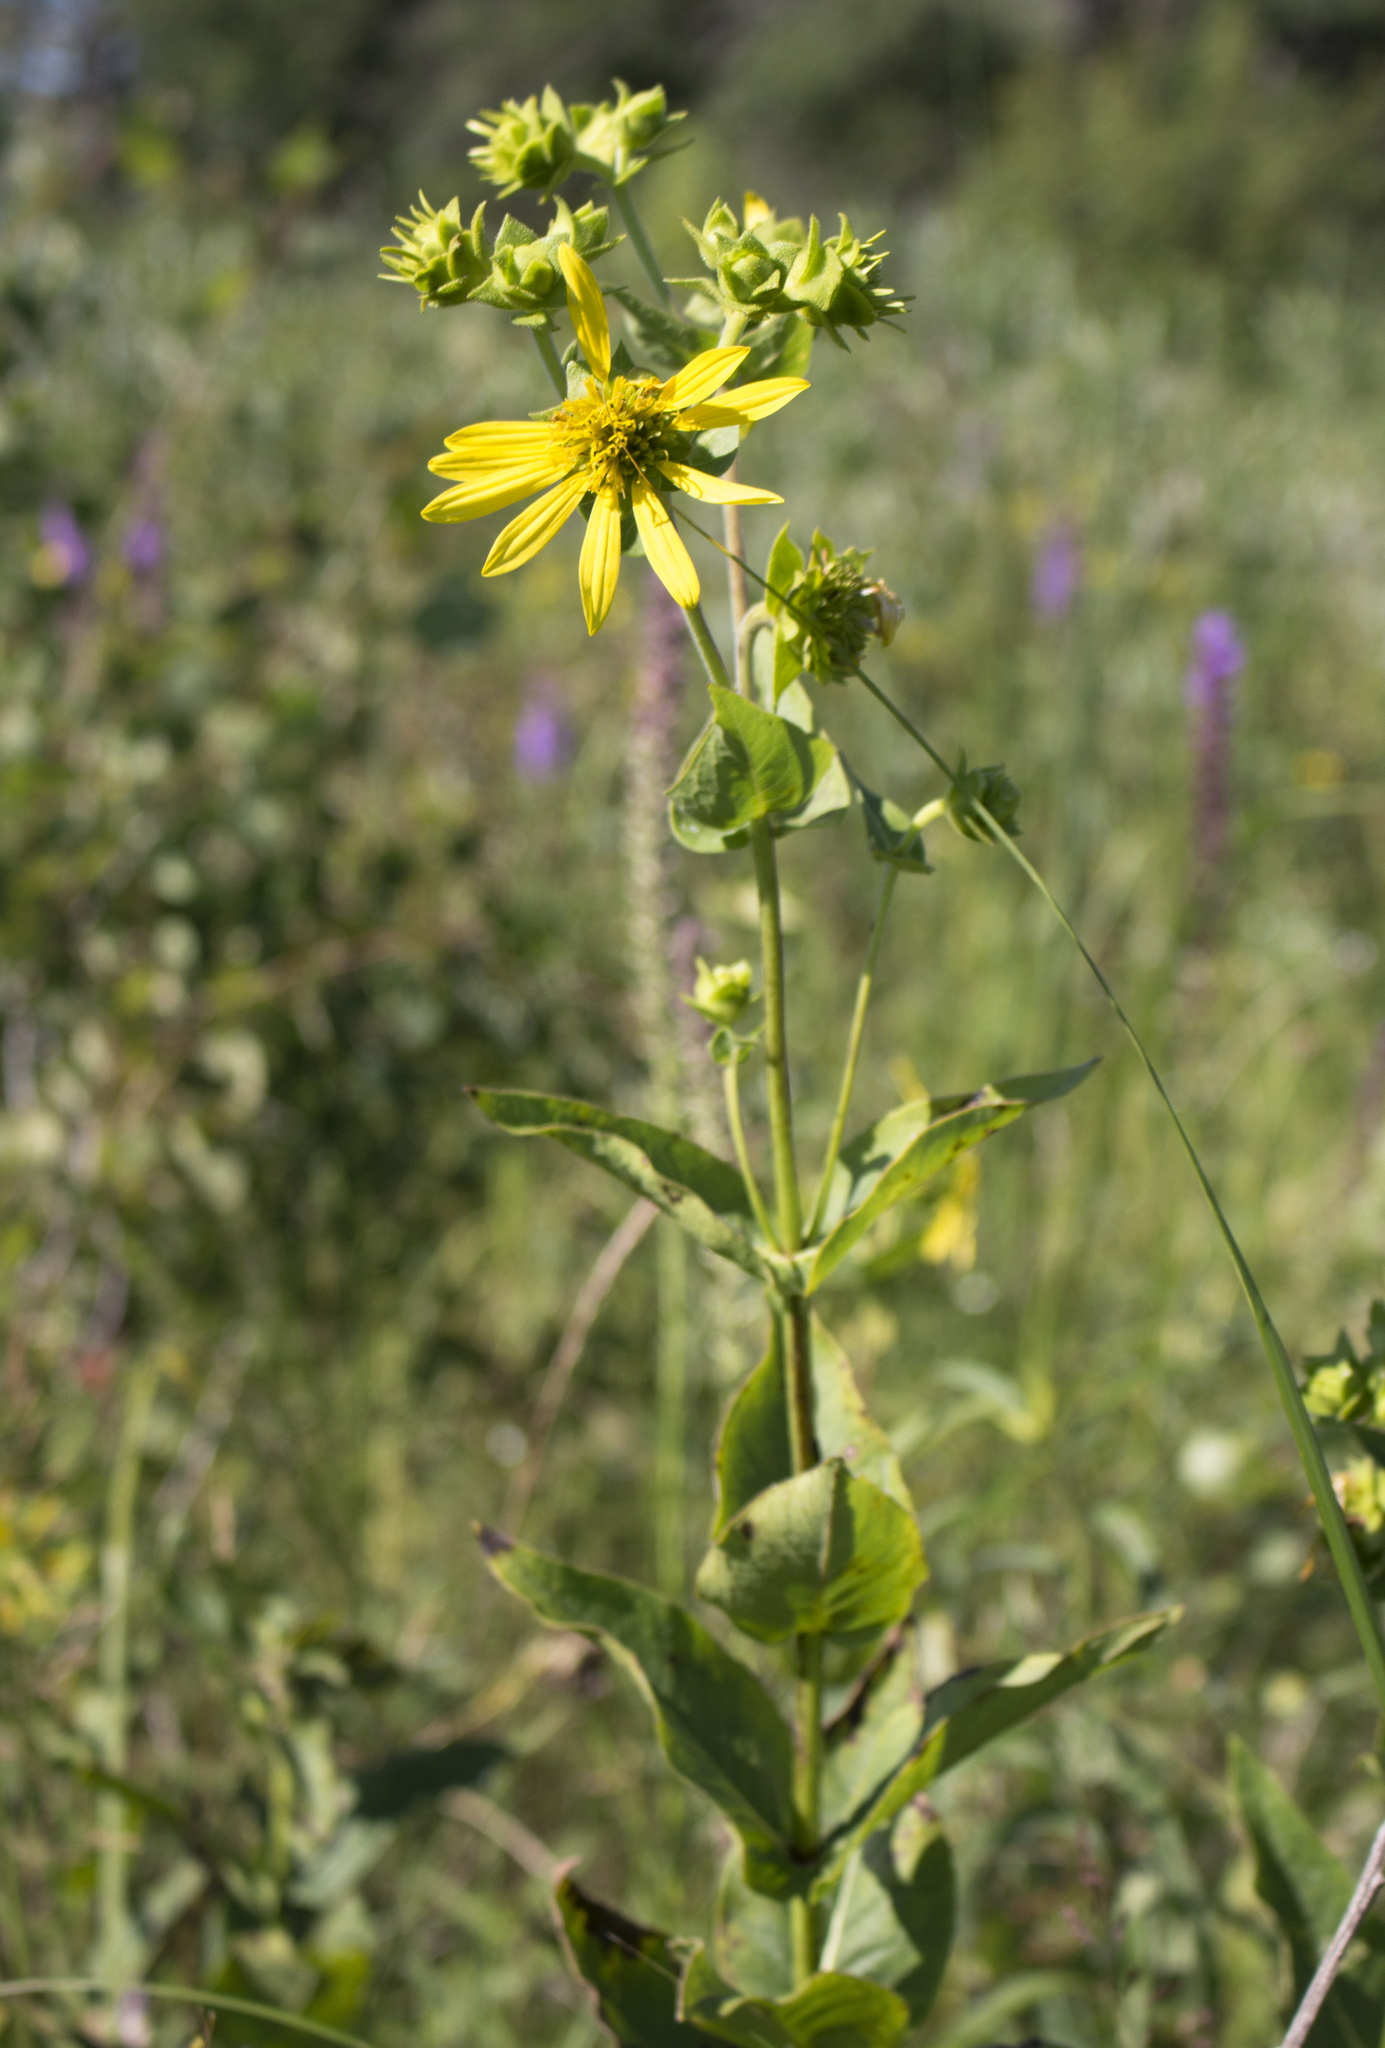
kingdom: Plantae
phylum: Tracheophyta
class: Magnoliopsida
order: Asterales
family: Asteraceae
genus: Silphium
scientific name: Silphium integrifolium
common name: Whole-leaf rosinweed
